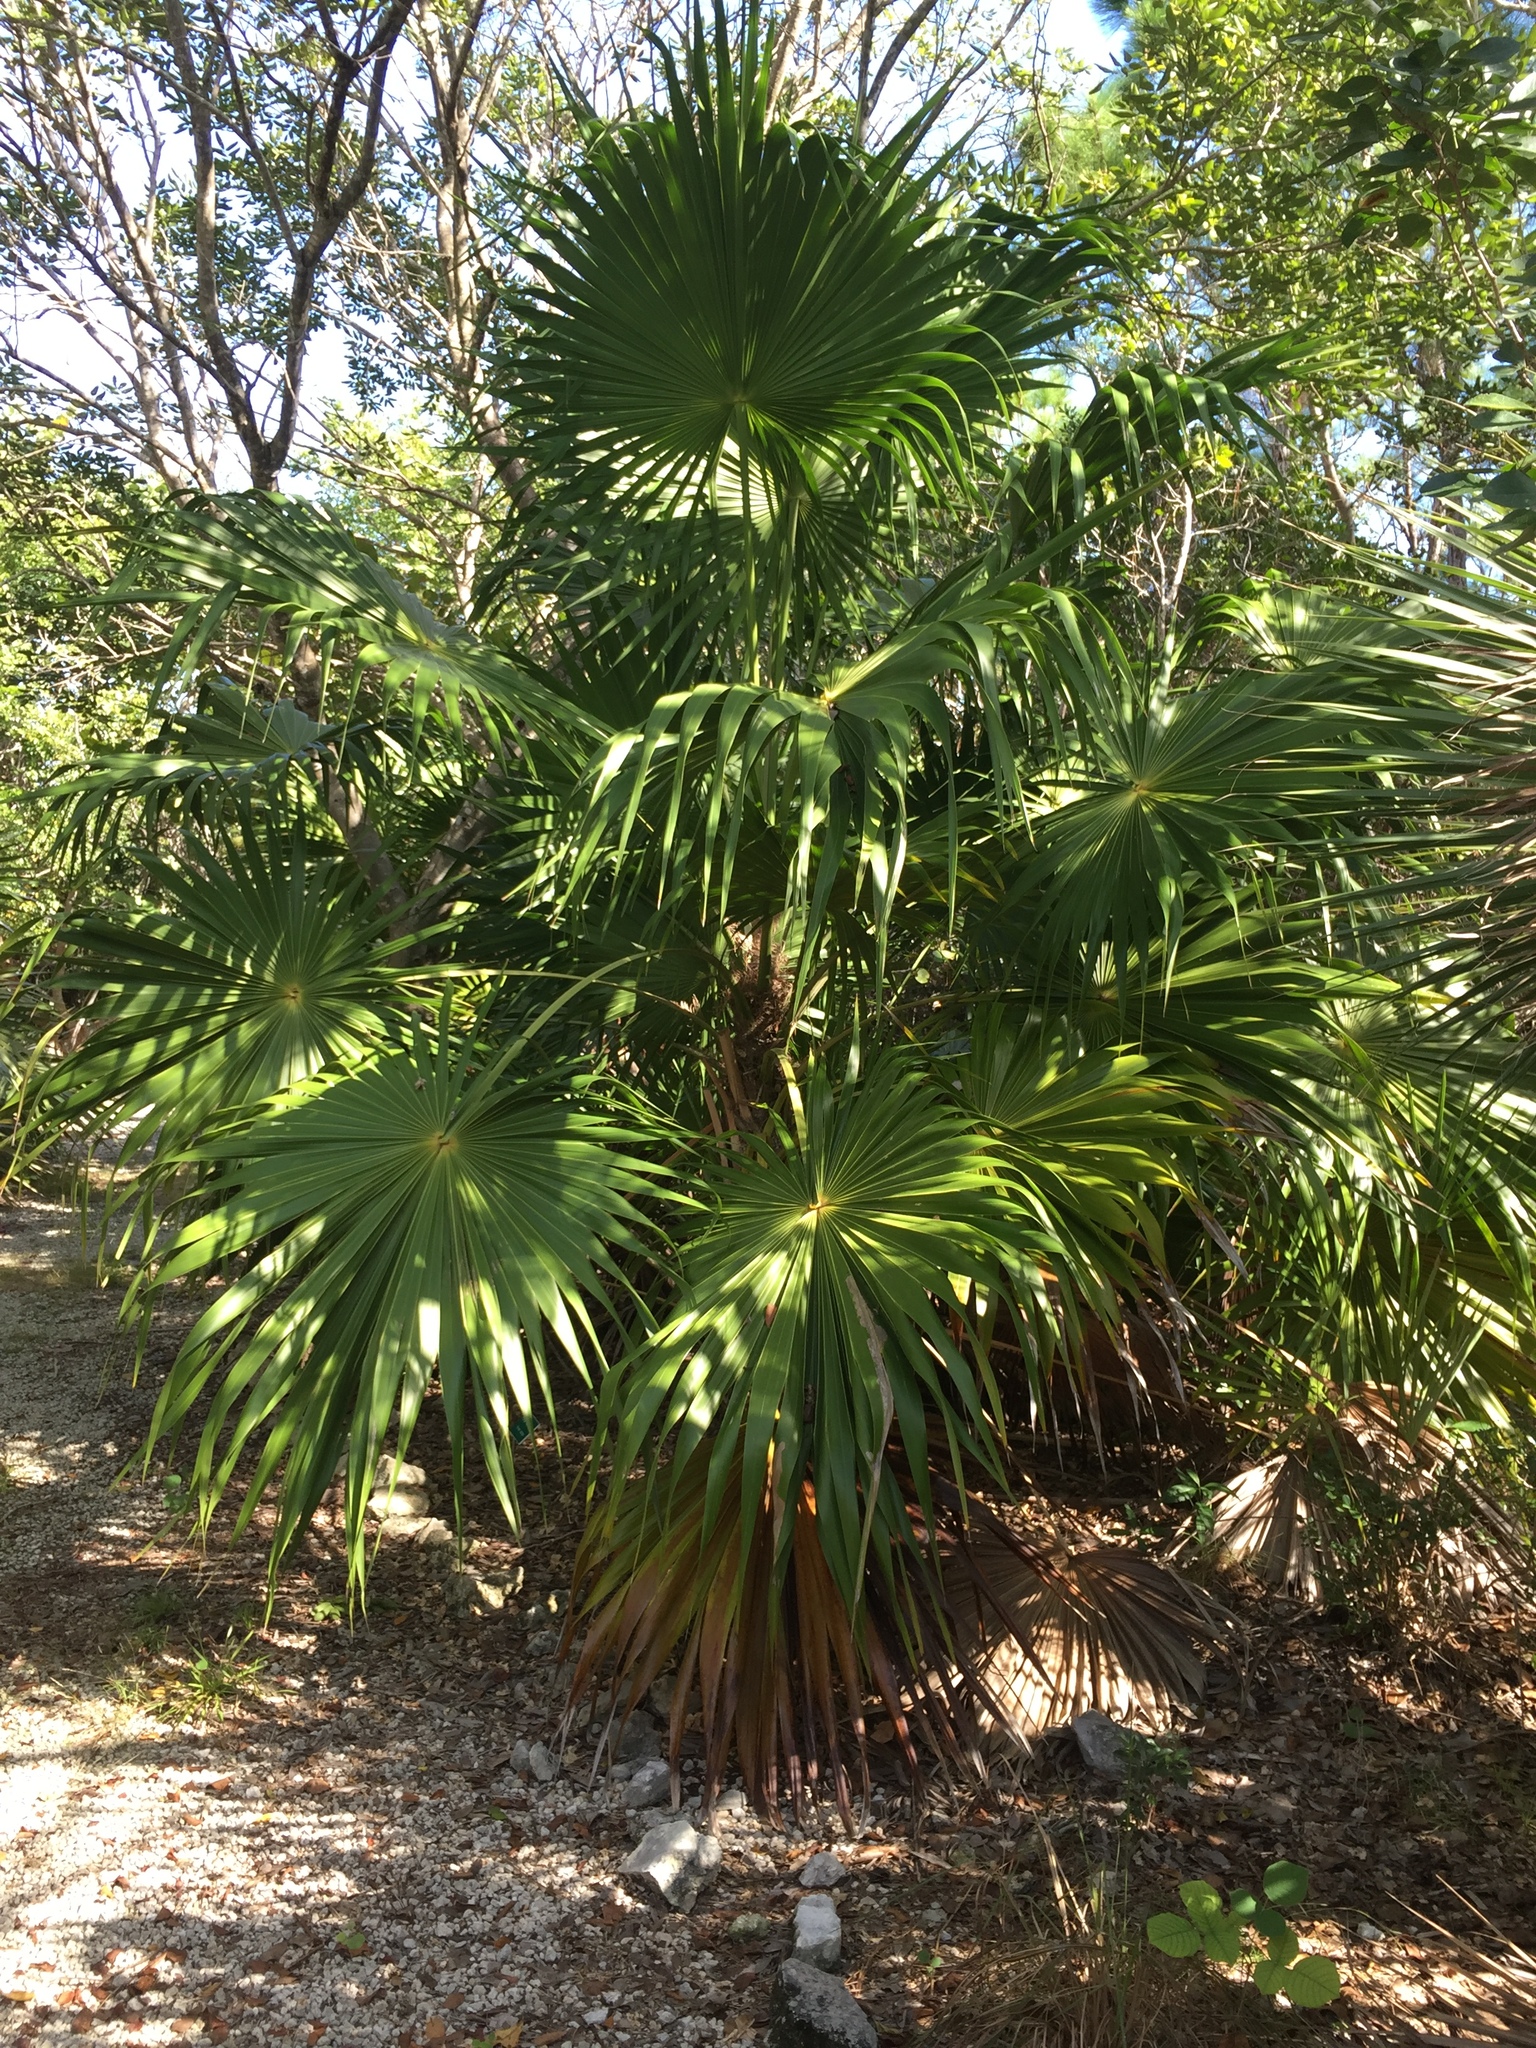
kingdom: Plantae
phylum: Tracheophyta
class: Liliopsida
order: Arecales
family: Arecaceae
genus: Thrinax
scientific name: Thrinax radiata
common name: Florida thatch
